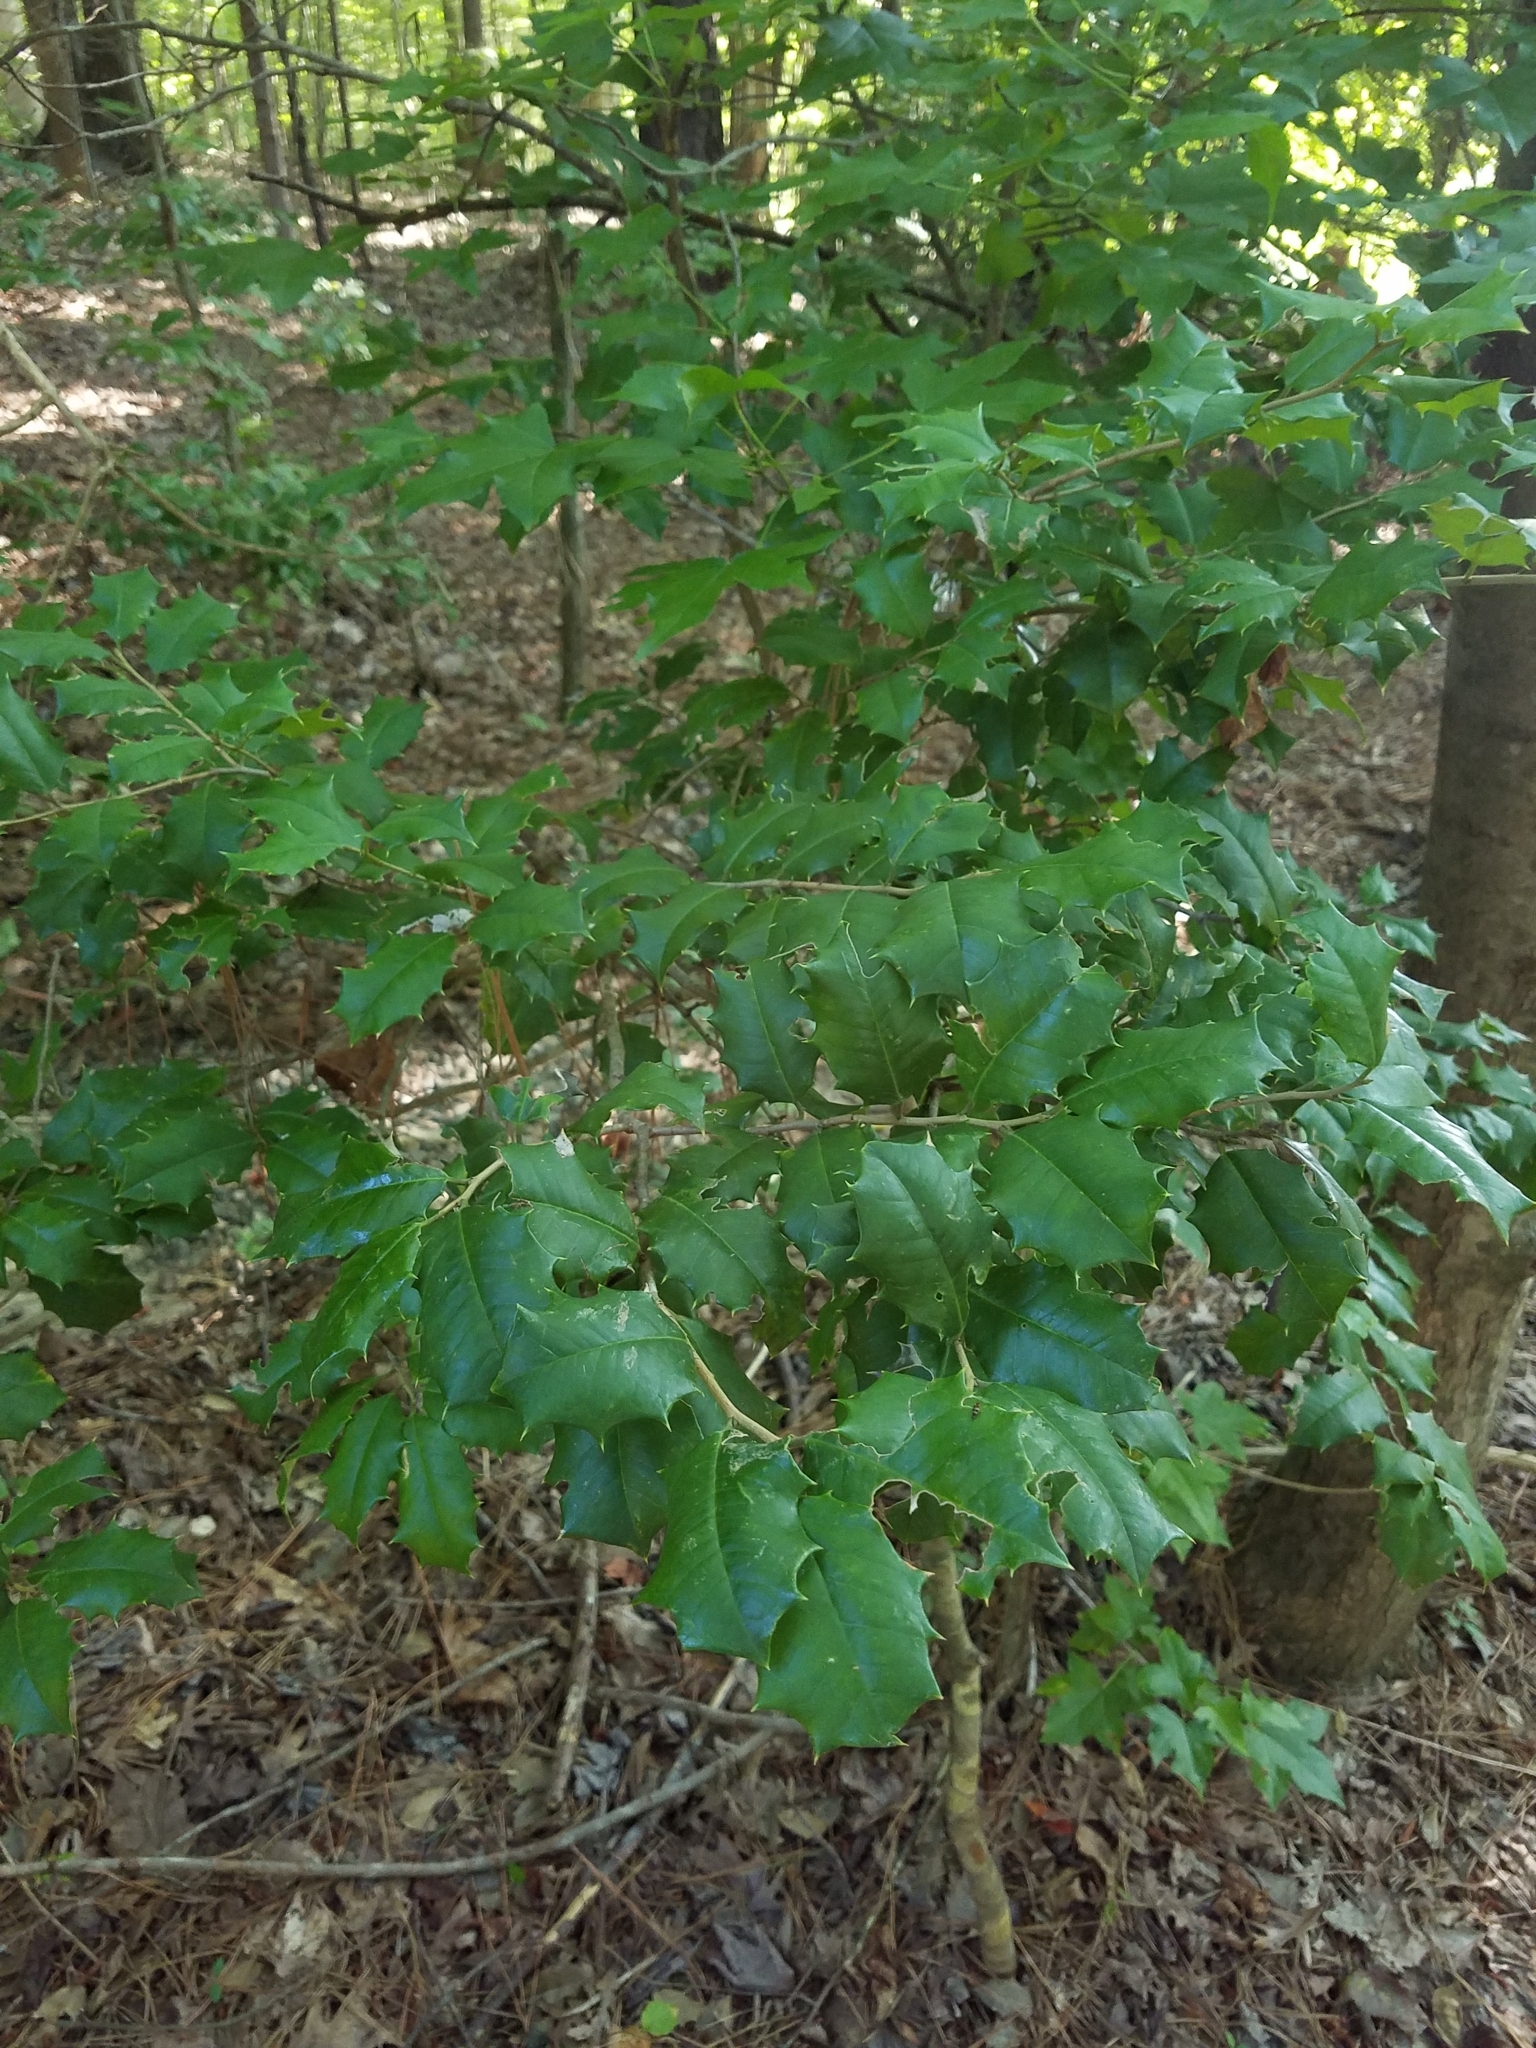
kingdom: Plantae
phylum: Tracheophyta
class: Magnoliopsida
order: Aquifoliales
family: Aquifoliaceae
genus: Ilex
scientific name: Ilex opaca
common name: American holly
